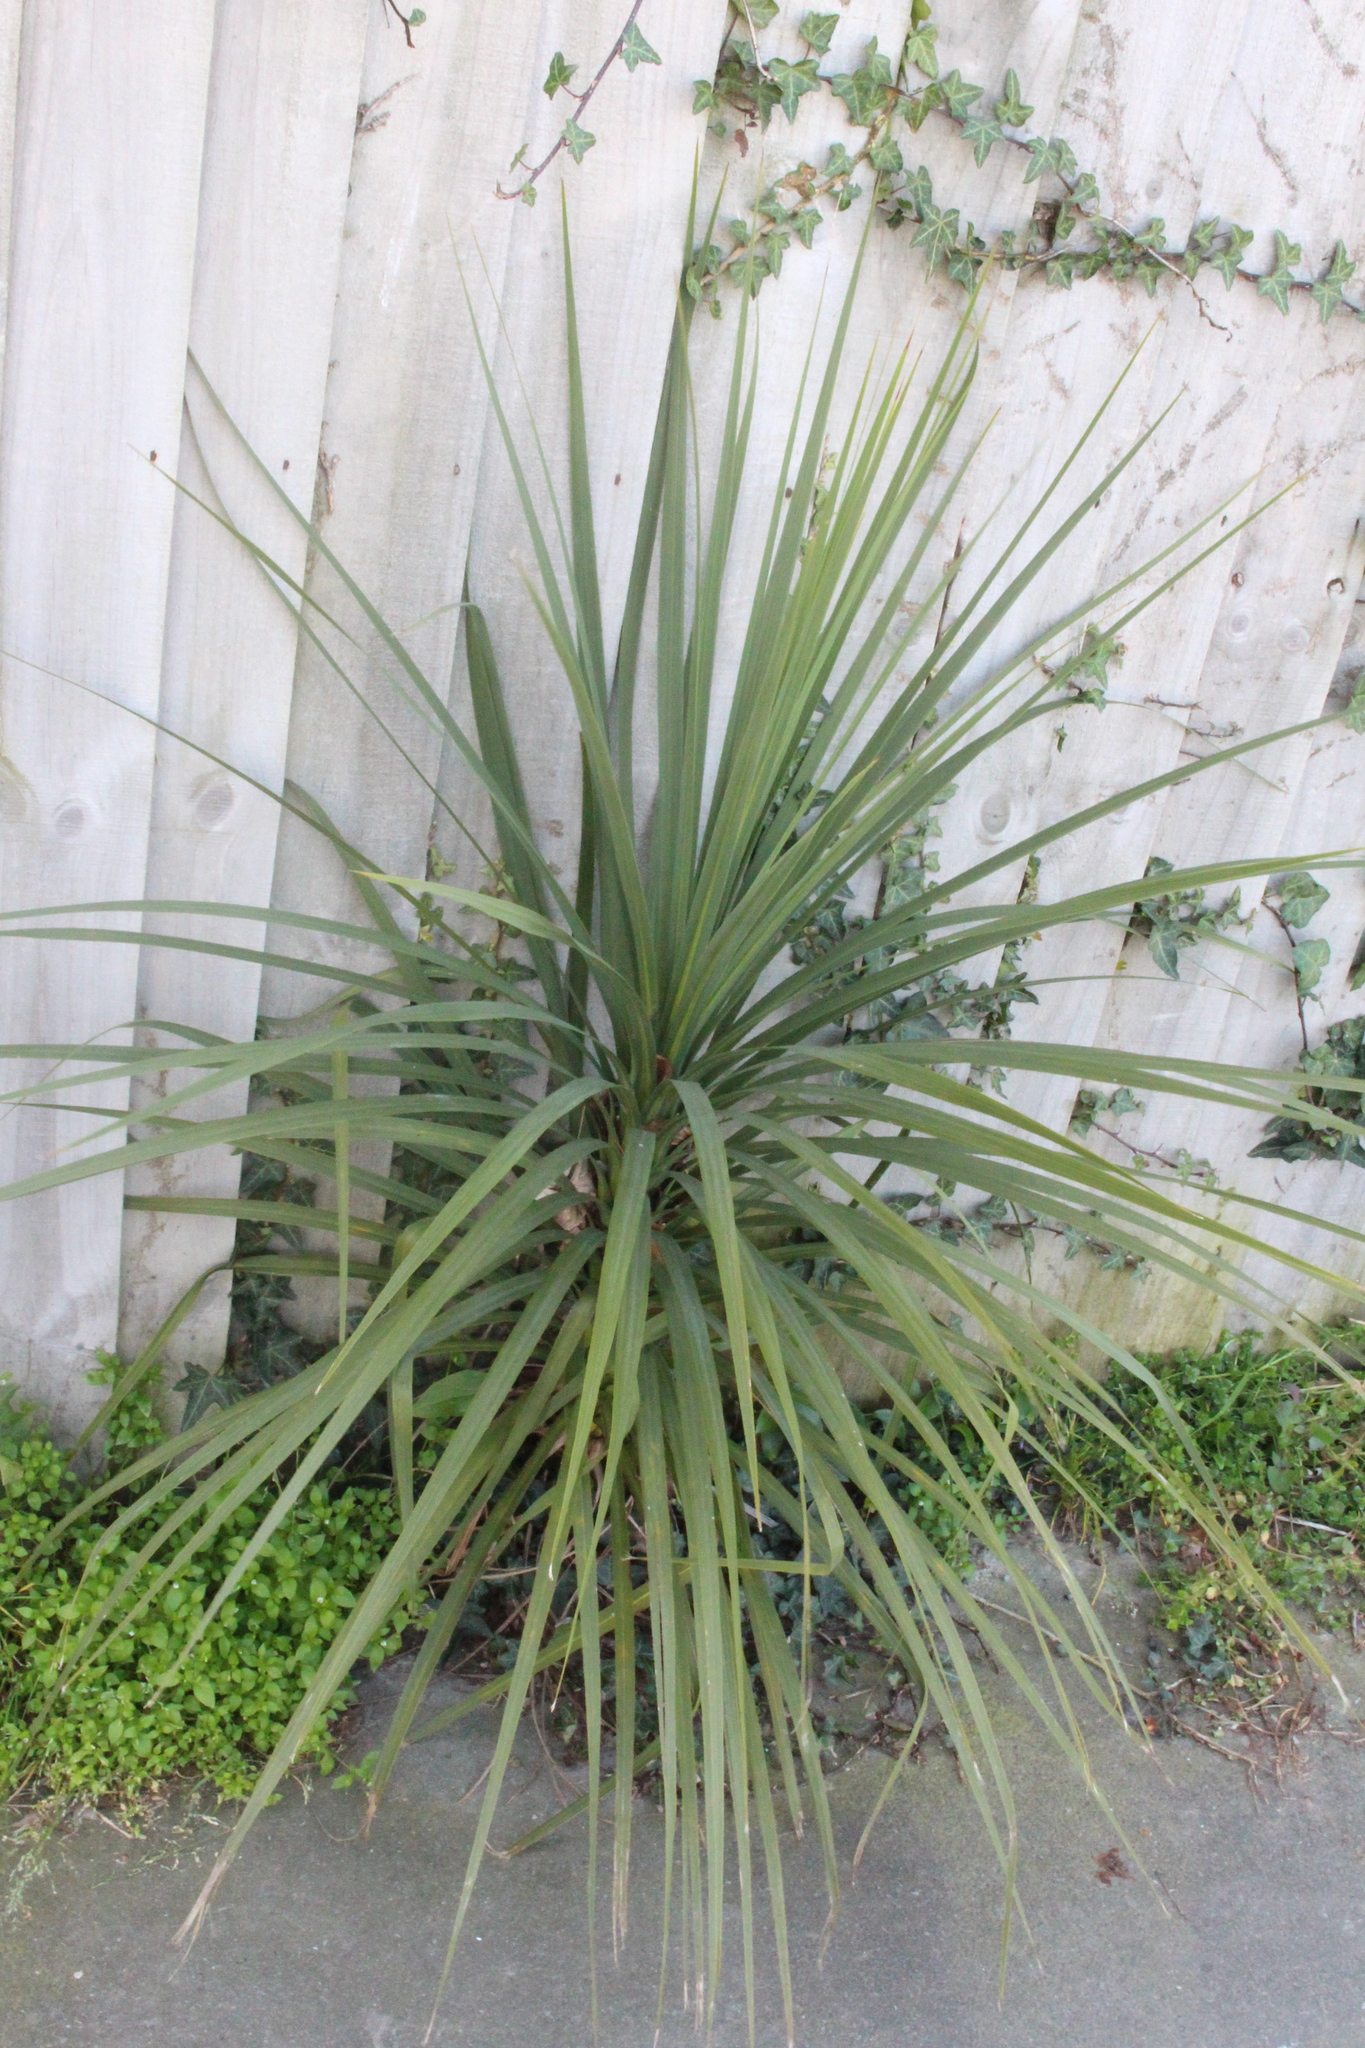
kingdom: Plantae
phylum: Tracheophyta
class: Liliopsida
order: Asparagales
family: Asparagaceae
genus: Cordyline
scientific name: Cordyline australis
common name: Cabbage-palm
